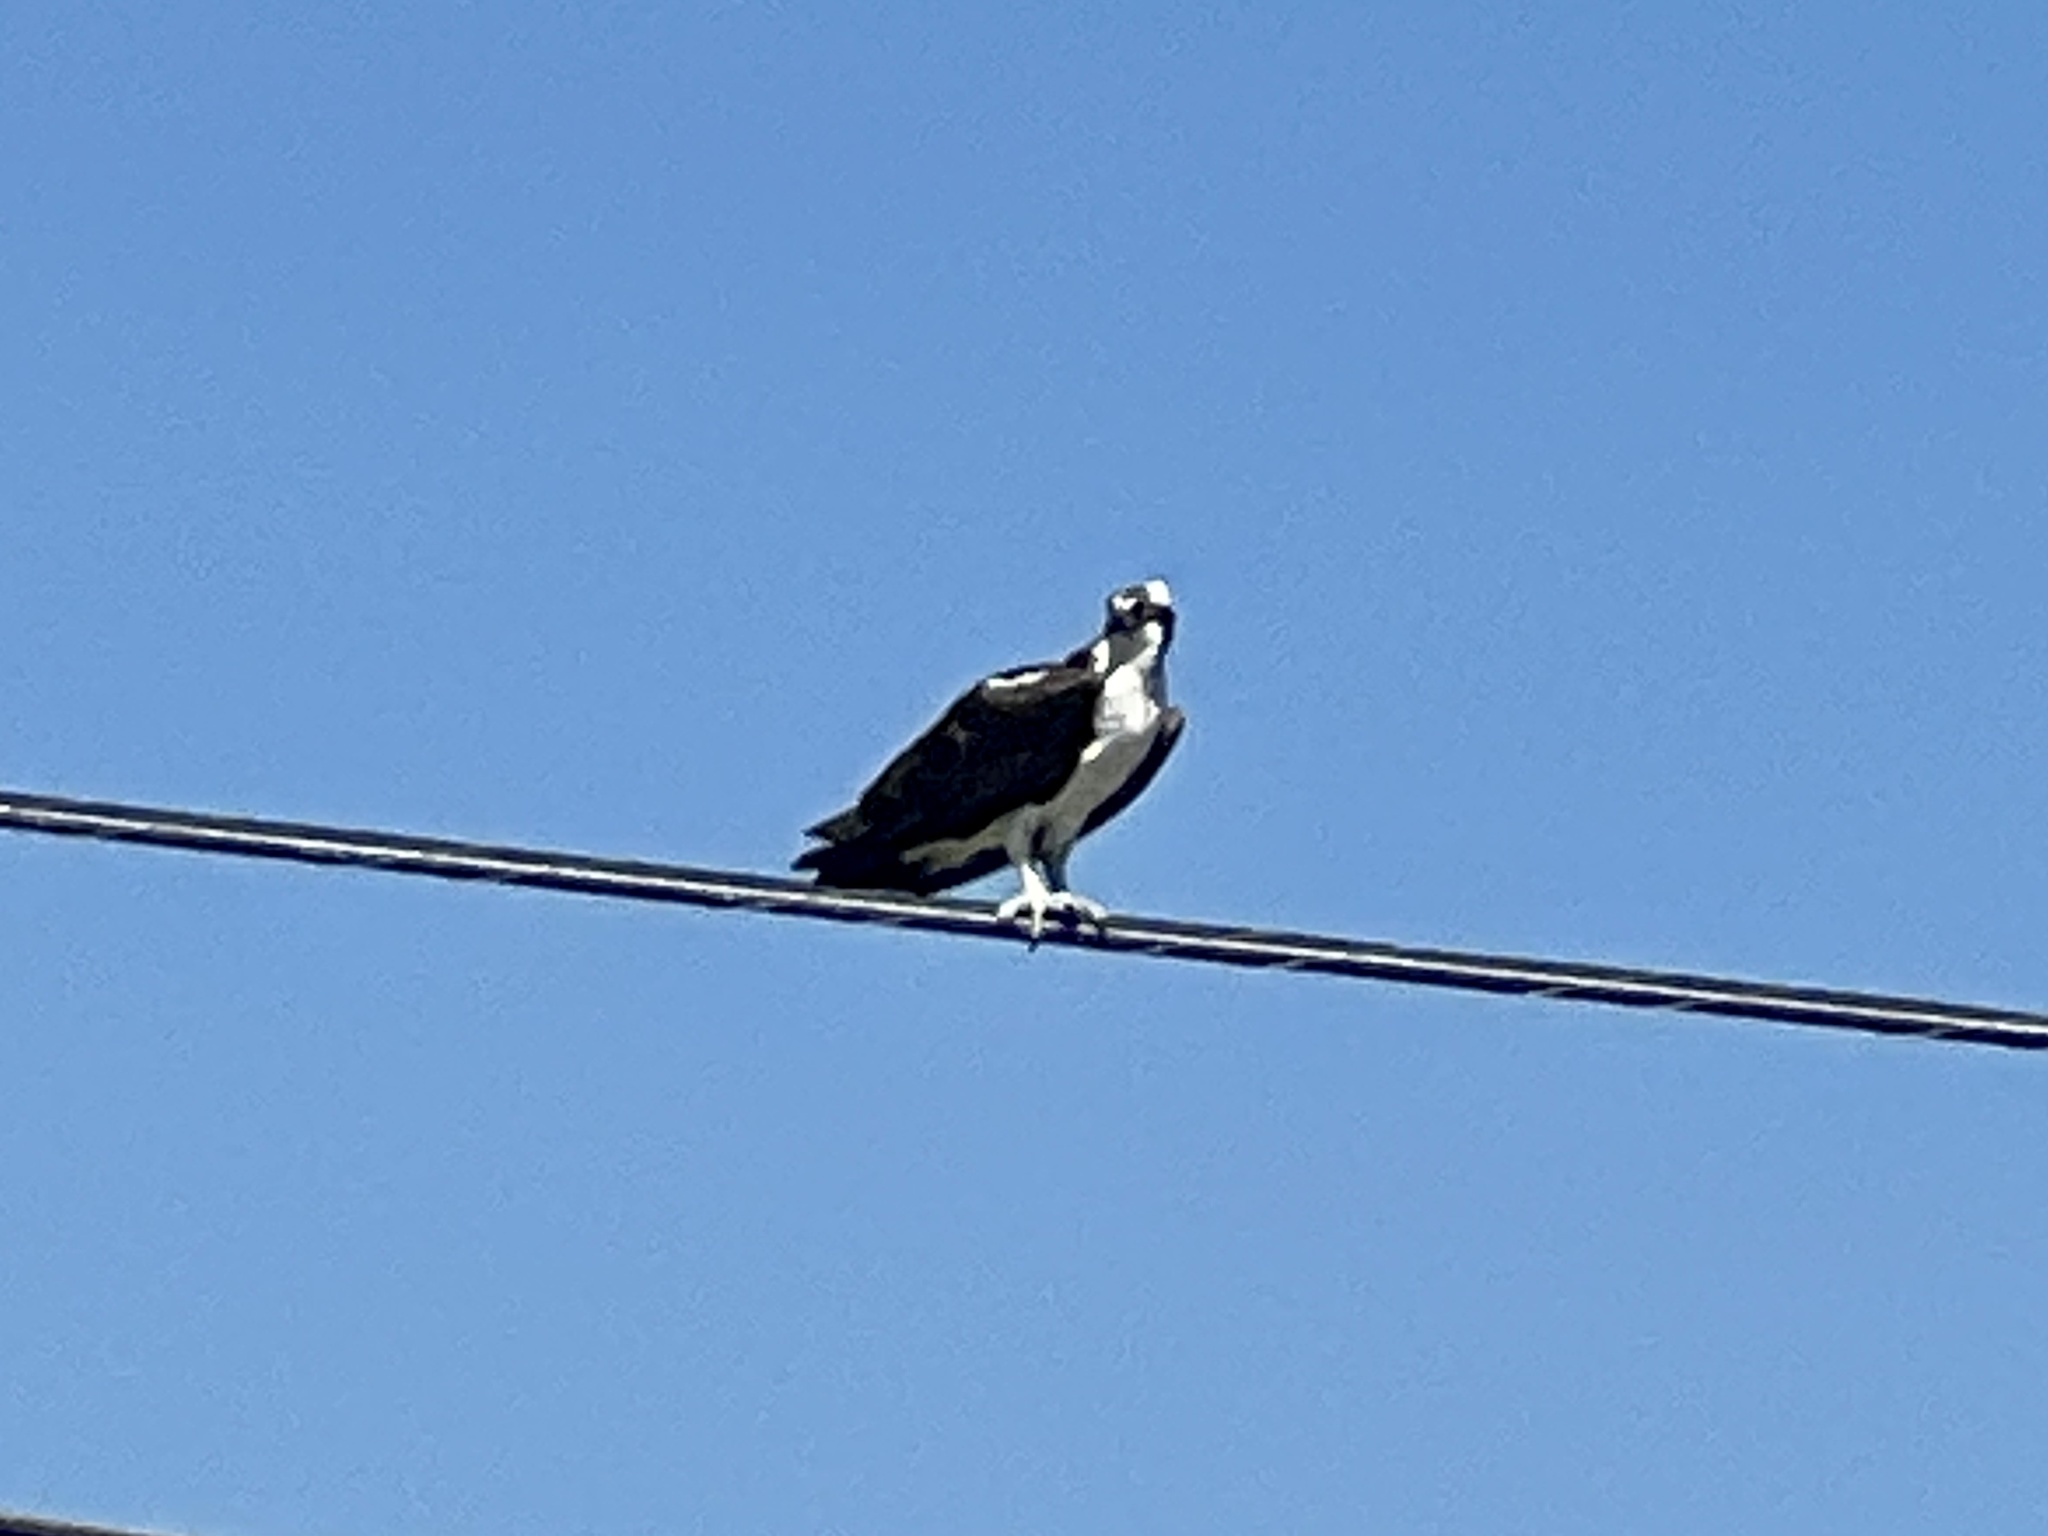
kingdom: Animalia
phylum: Chordata
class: Aves
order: Accipitriformes
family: Pandionidae
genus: Pandion
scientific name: Pandion haliaetus
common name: Osprey
